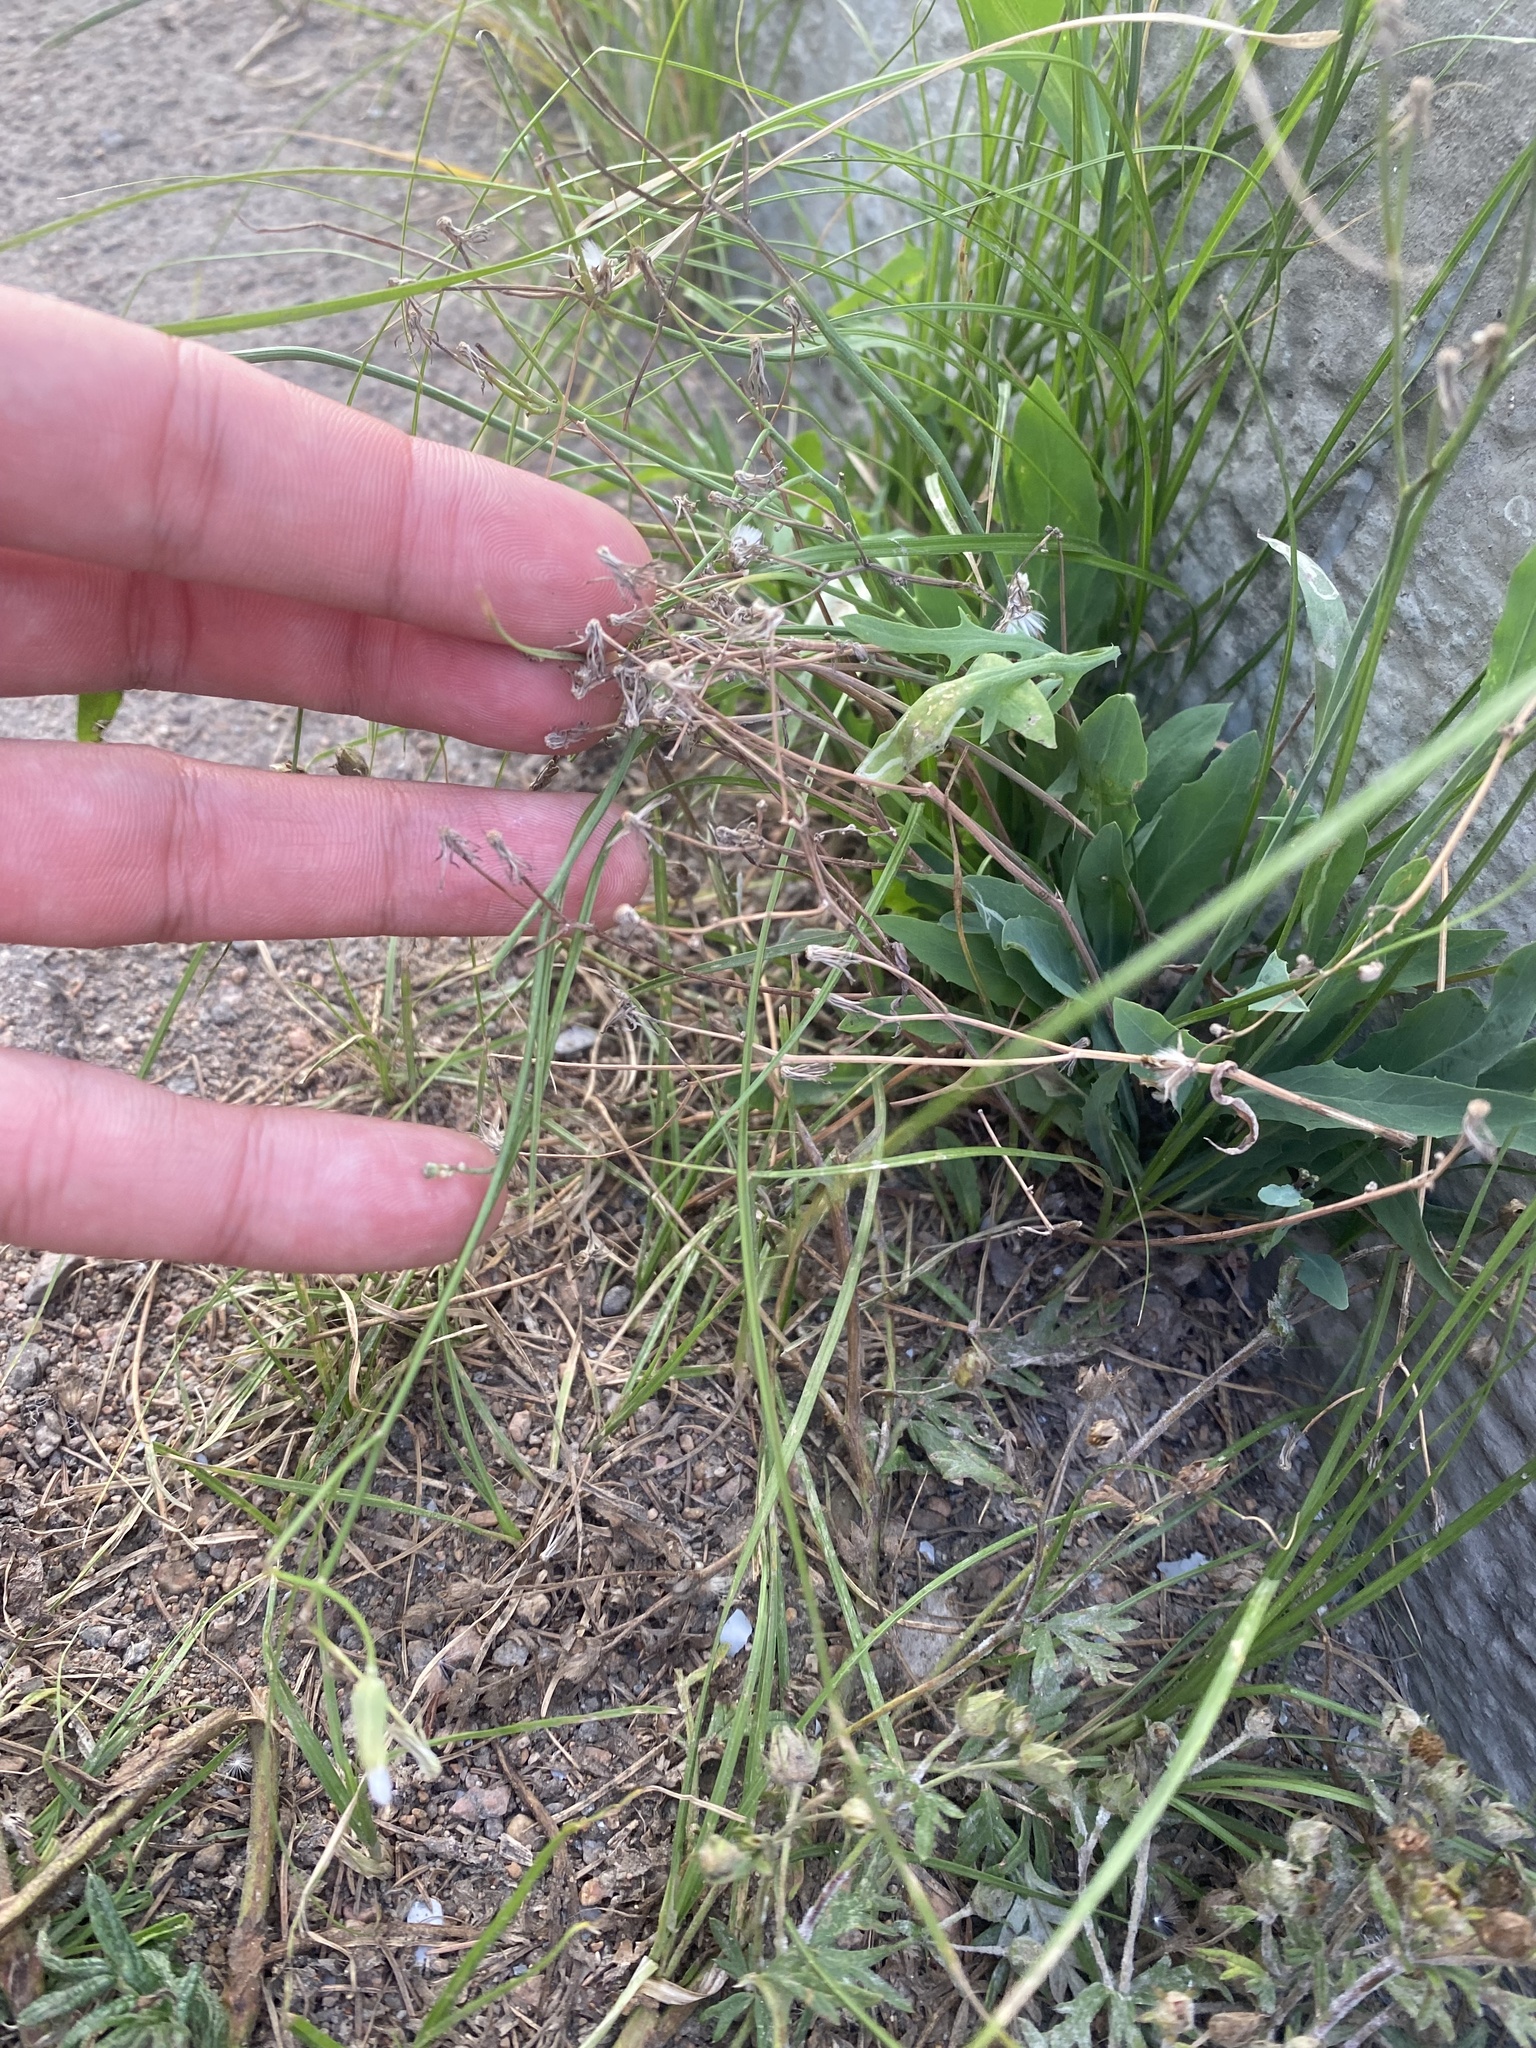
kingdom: Plantae
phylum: Tracheophyta
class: Magnoliopsida
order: Asterales
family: Asteraceae
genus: Ixeris
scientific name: Ixeris chinensis
